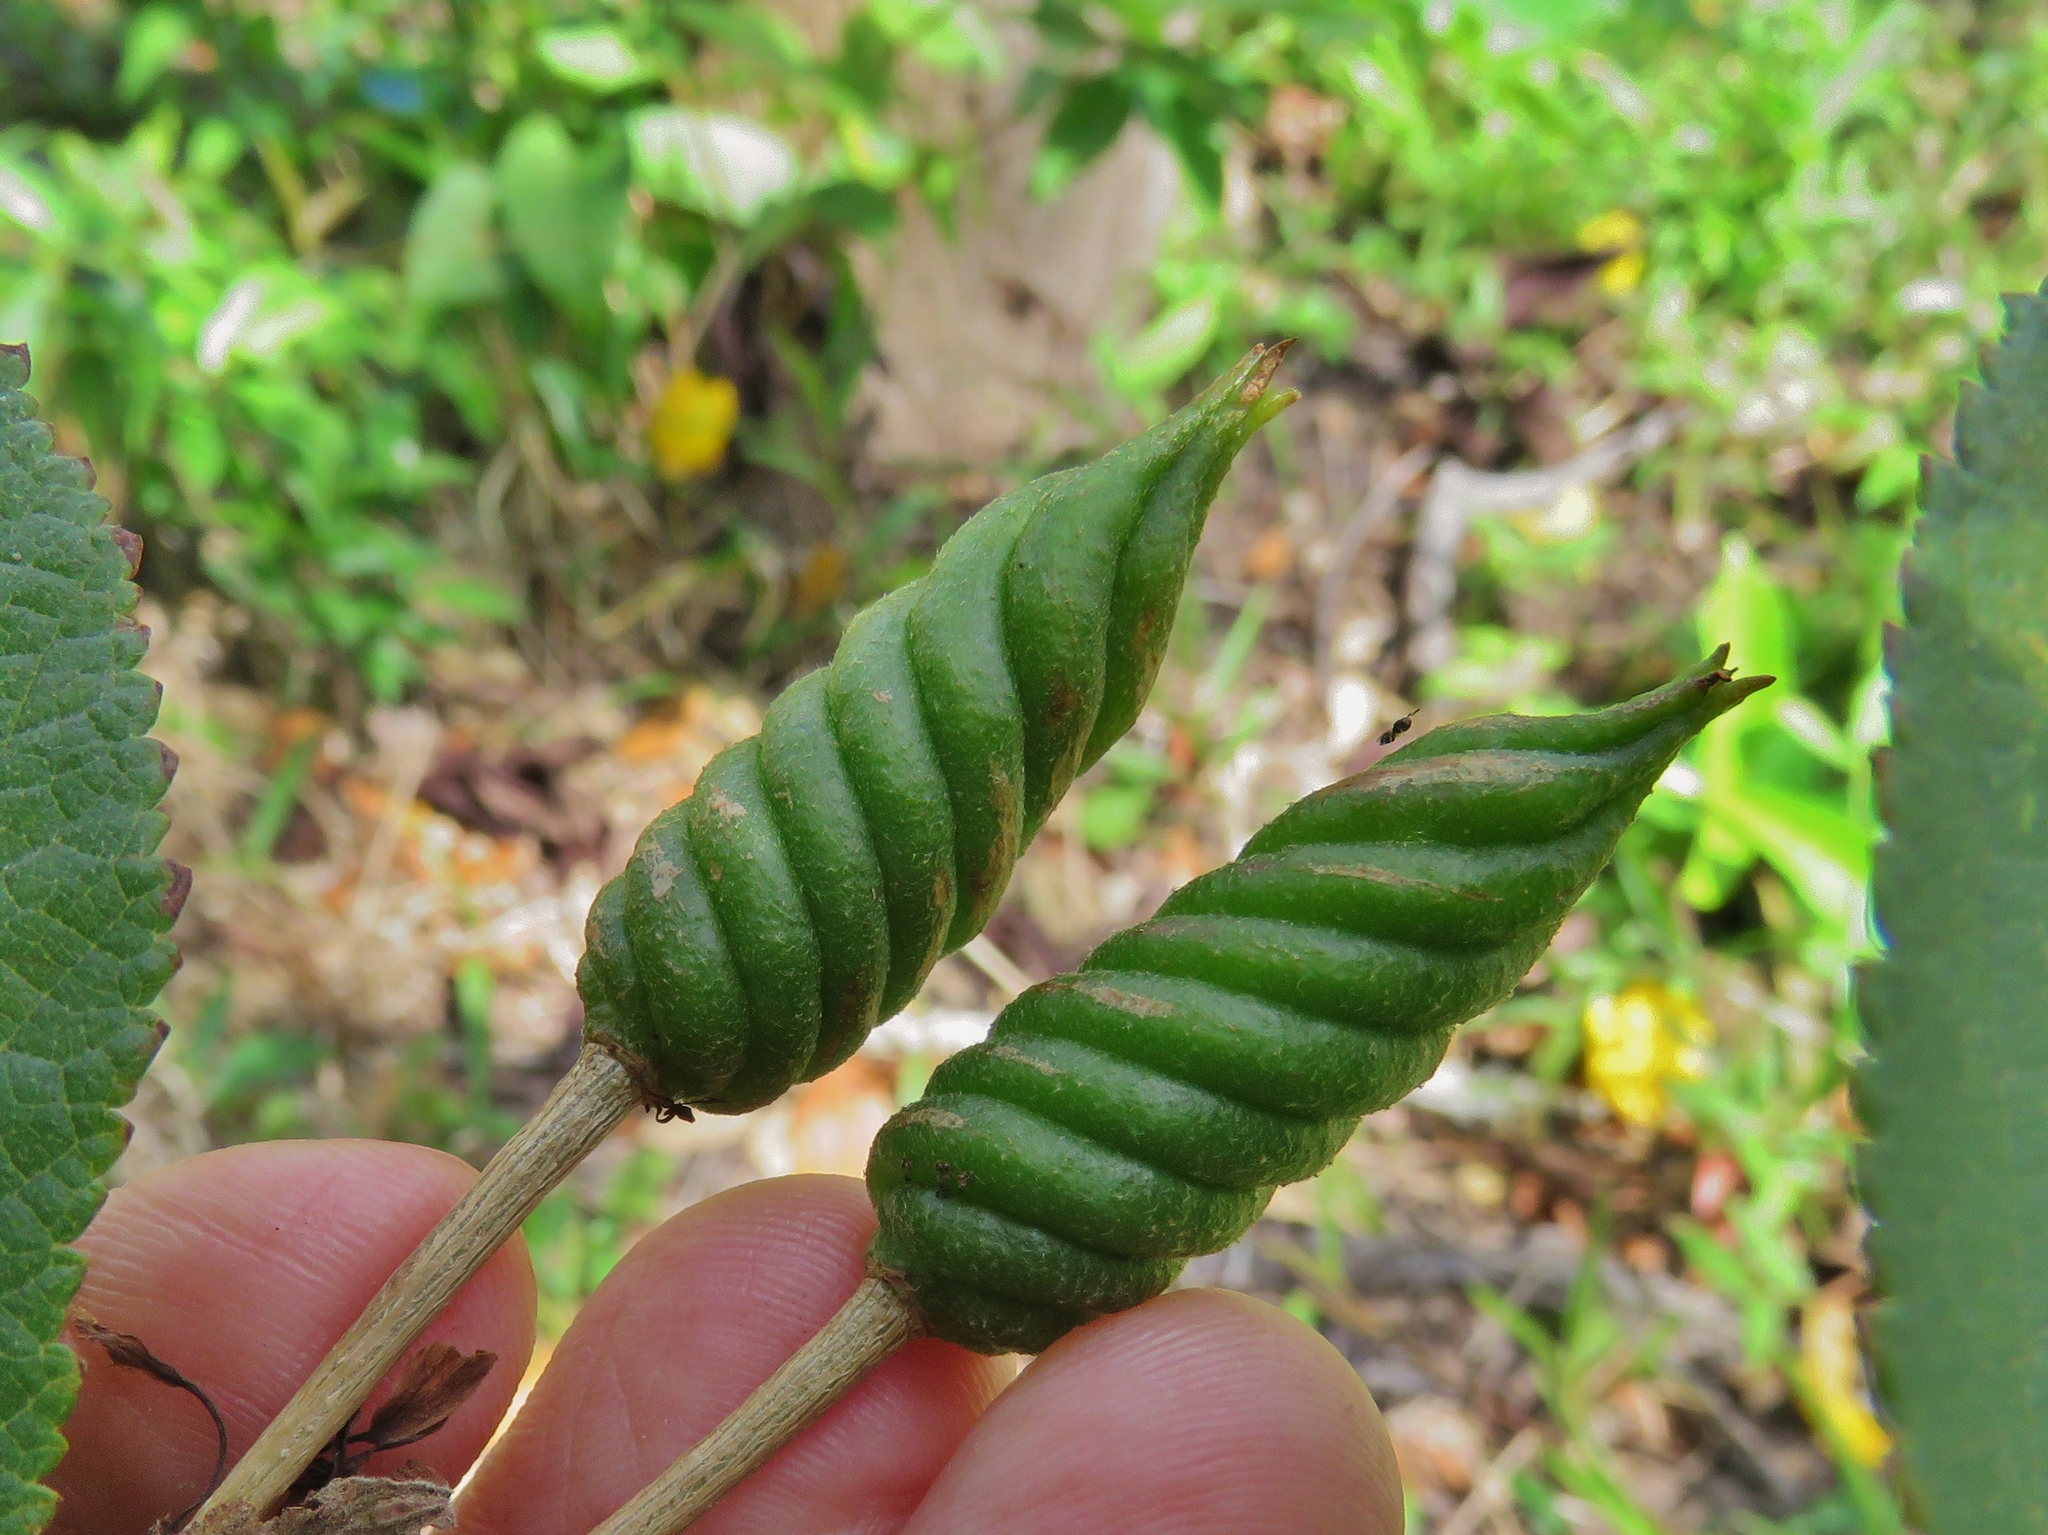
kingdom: Plantae
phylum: Tracheophyta
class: Magnoliopsida
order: Malvales
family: Malvaceae
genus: Helicteres
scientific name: Helicteres guazumifolia
